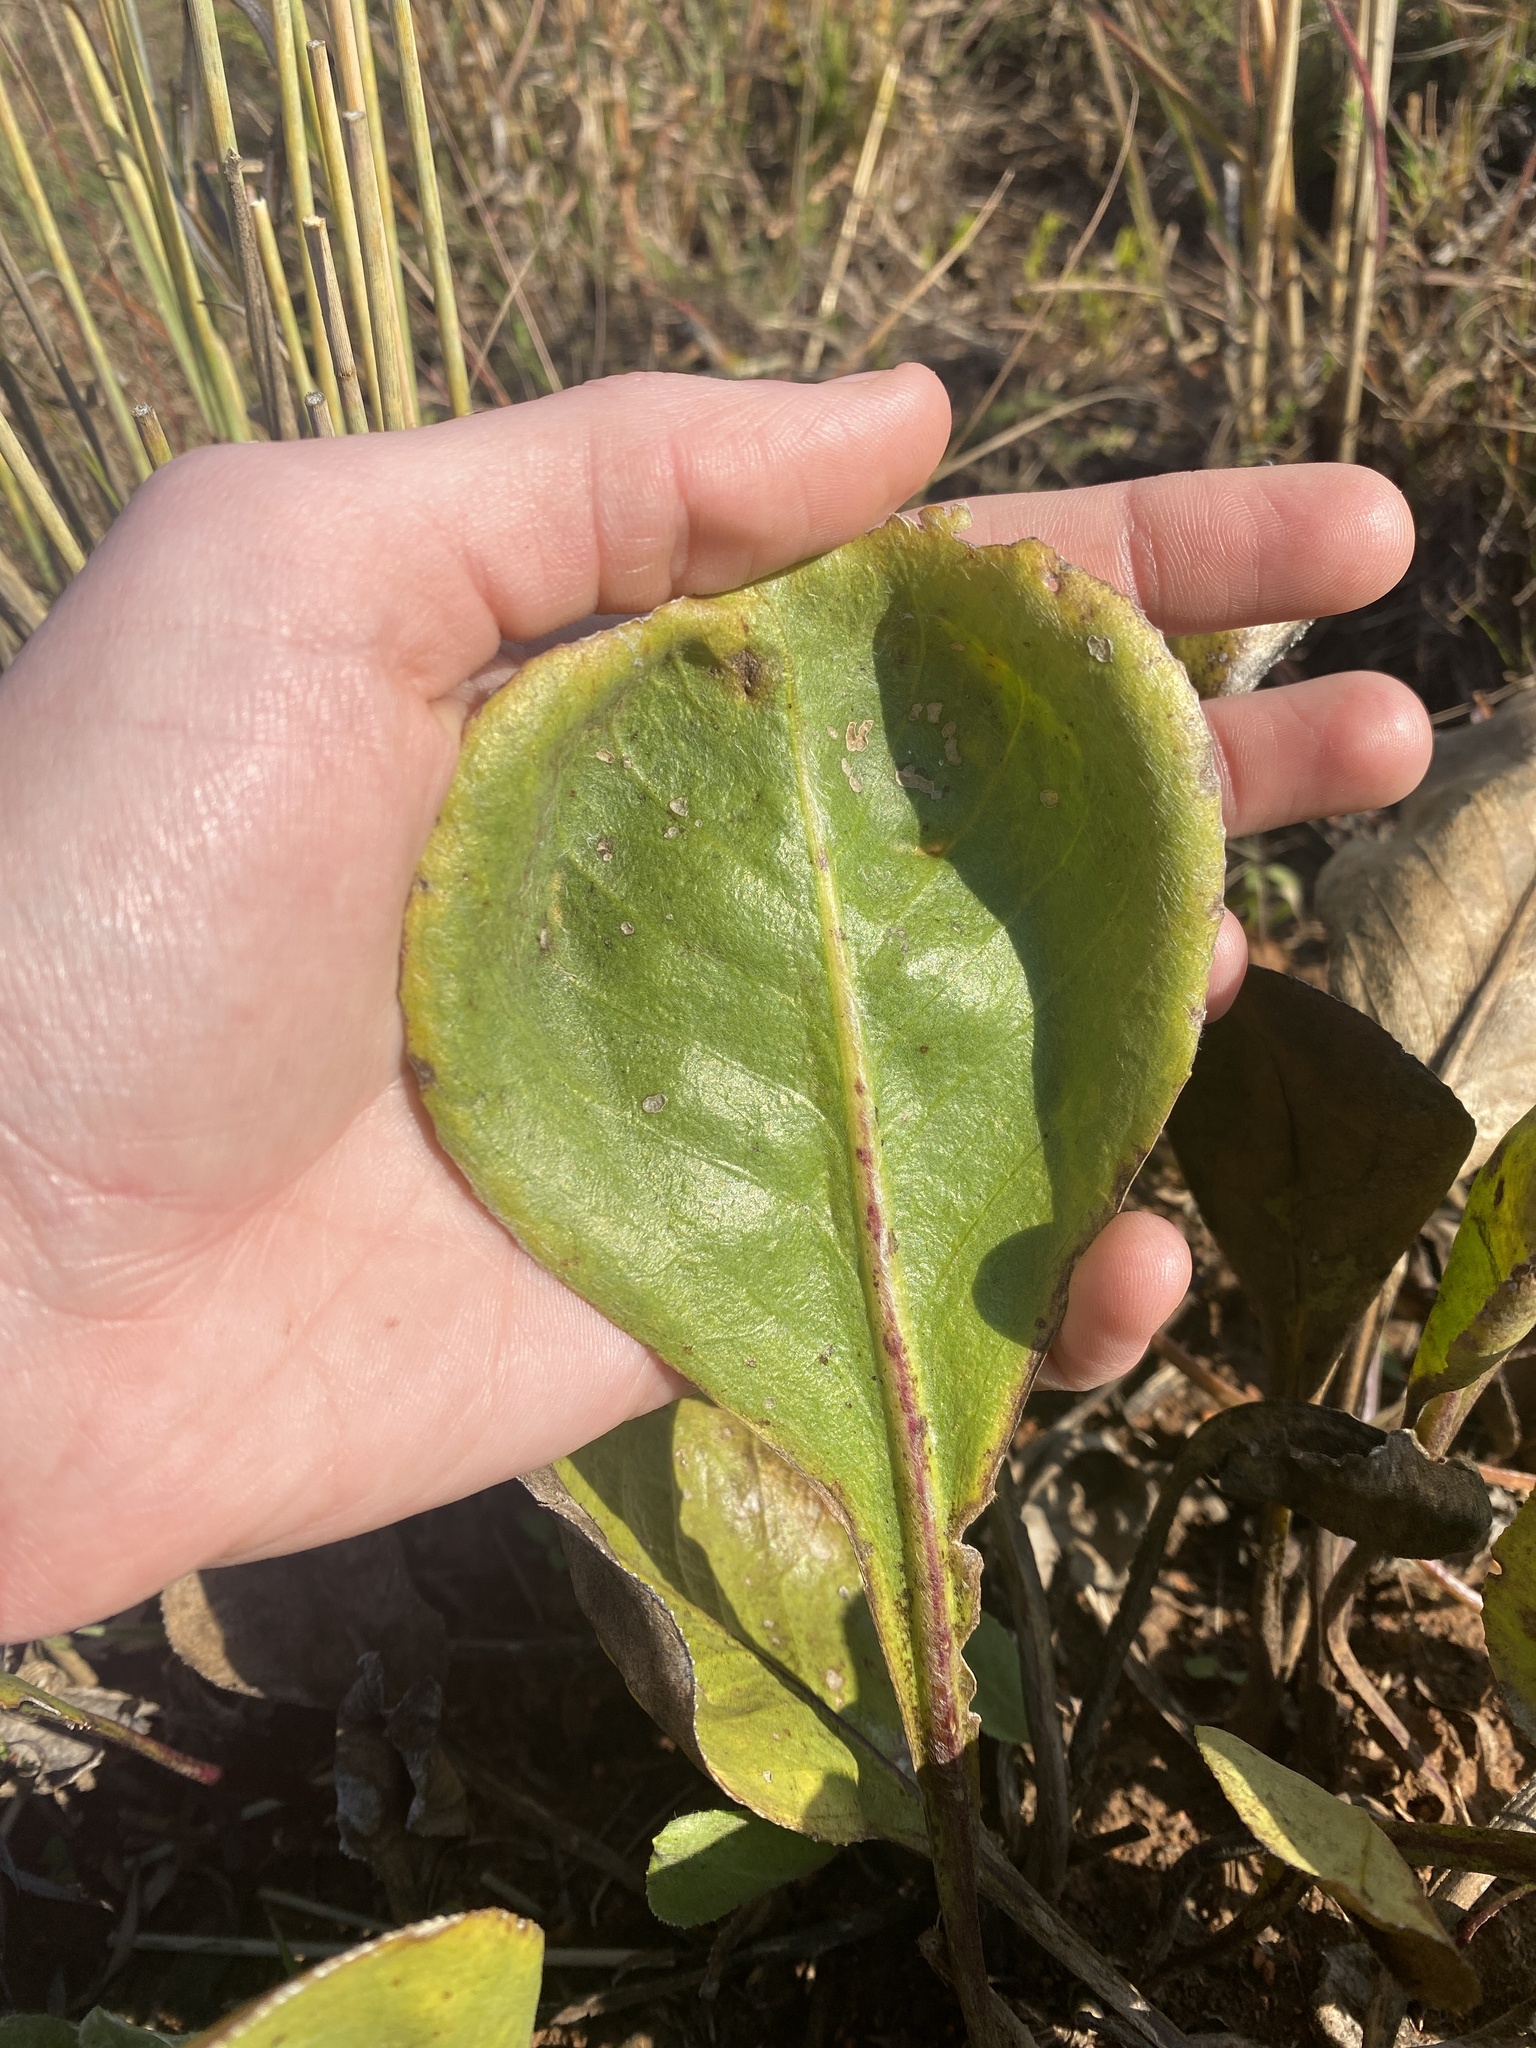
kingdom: Plantae
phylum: Tracheophyta
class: Magnoliopsida
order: Asterales
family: Asteraceae
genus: Senecio
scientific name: Senecio coronatus
